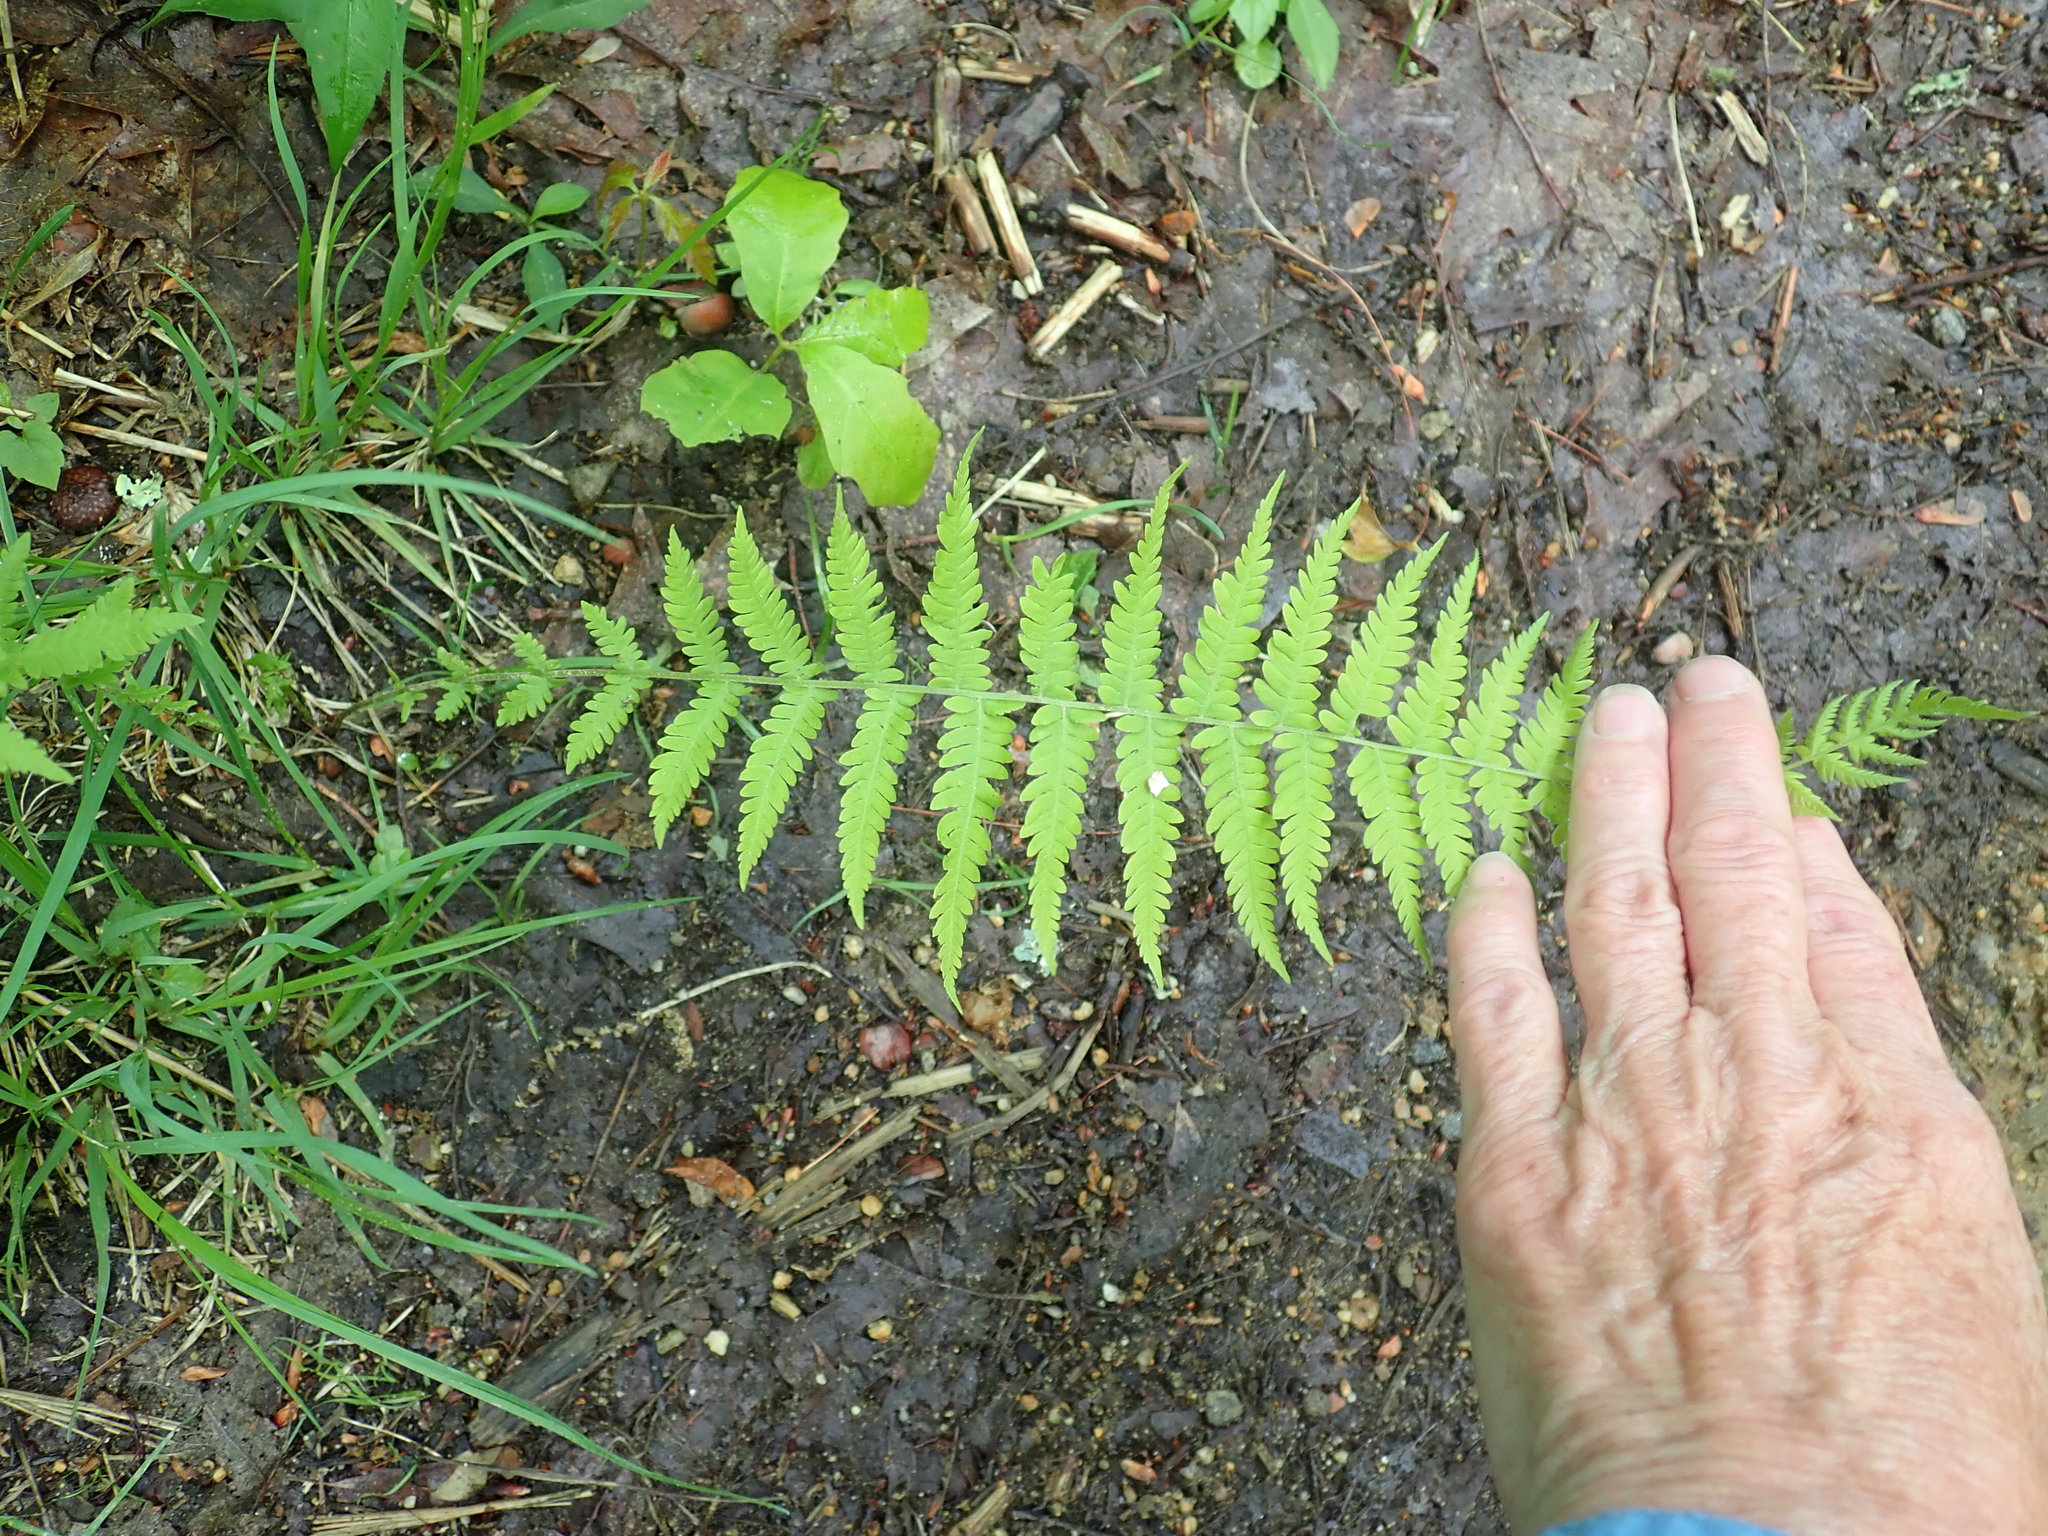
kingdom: Plantae
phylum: Tracheophyta
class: Polypodiopsida
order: Polypodiales
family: Thelypteridaceae
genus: Amauropelta
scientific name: Amauropelta noveboracensis
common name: New york fern
